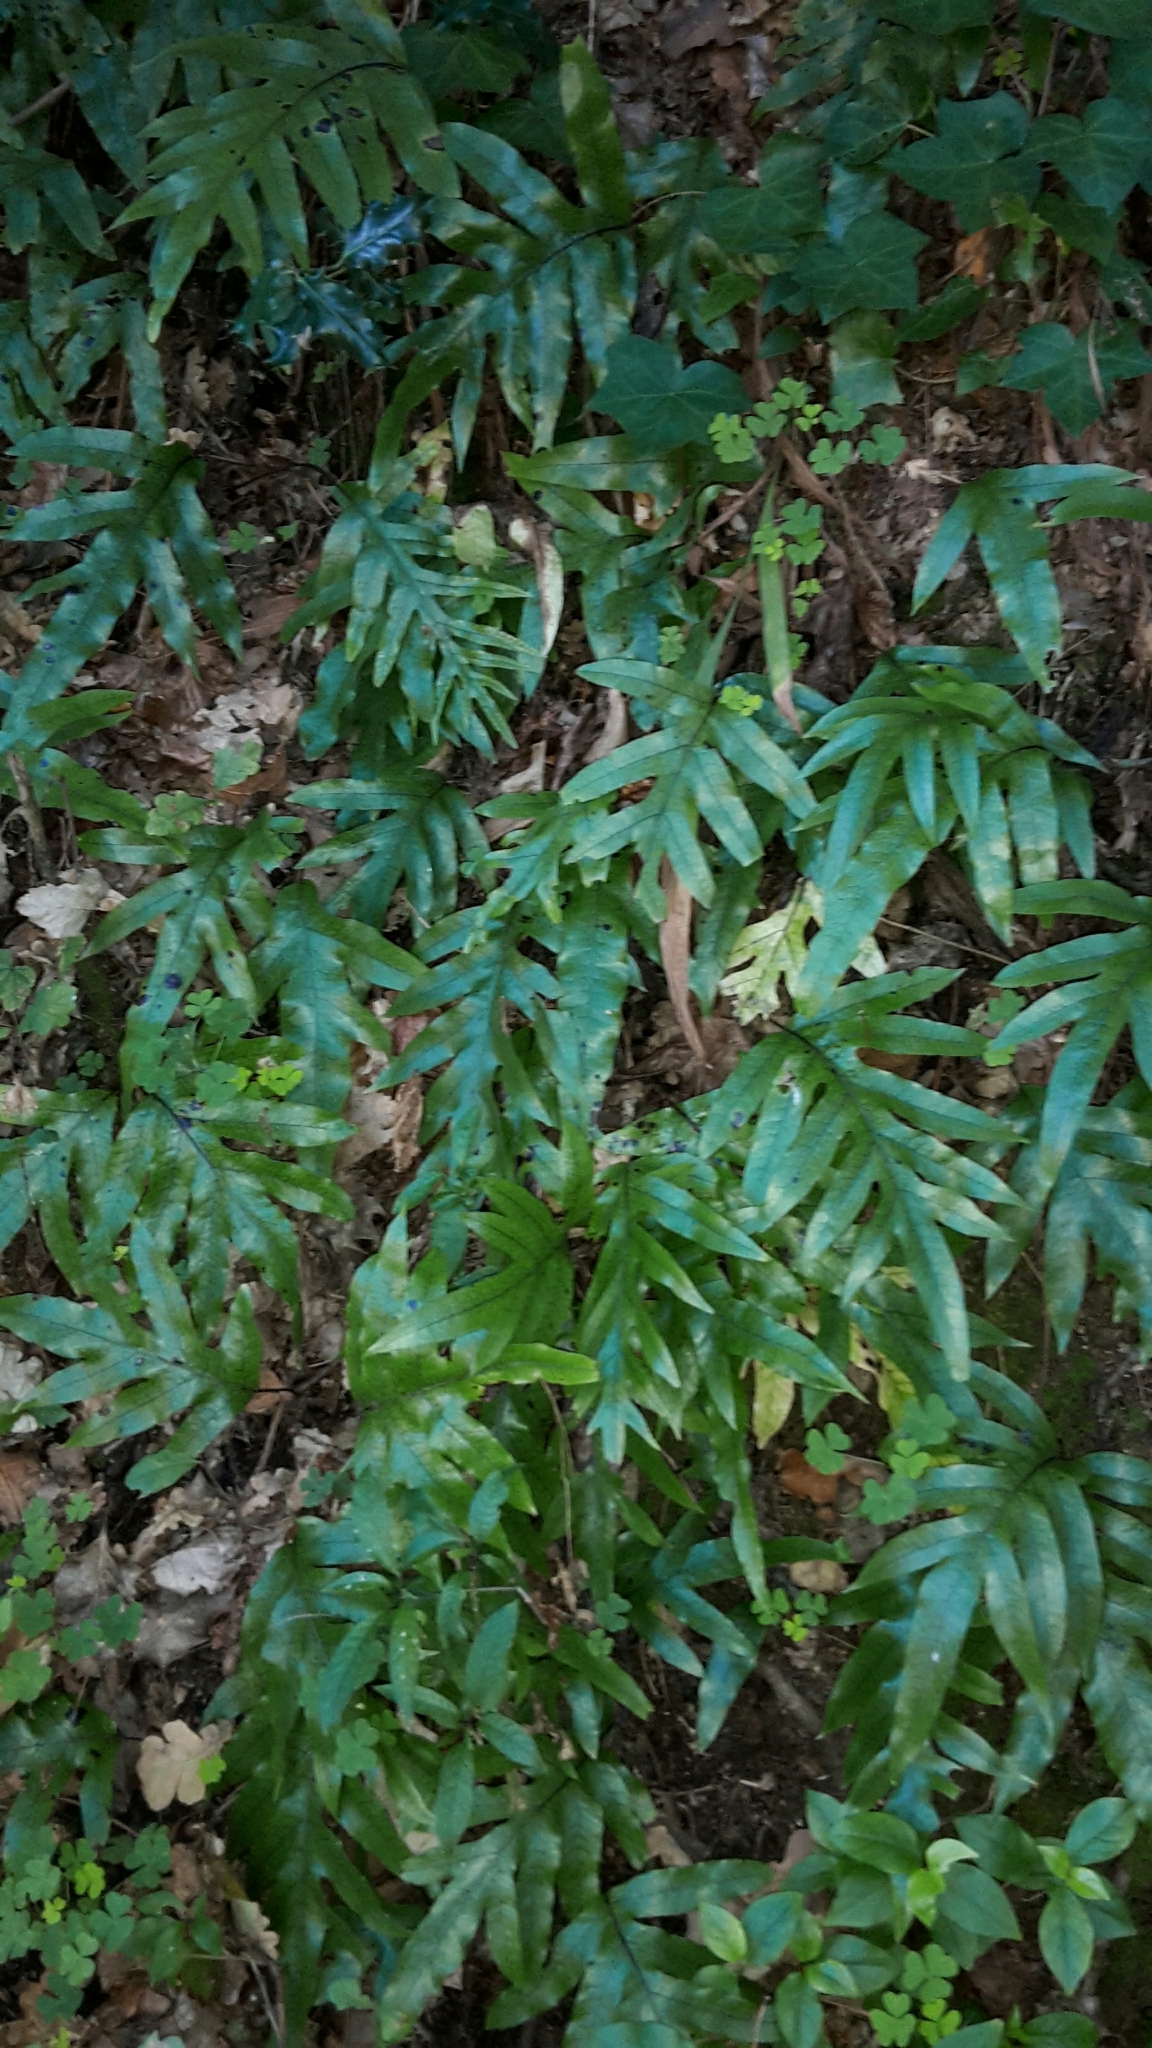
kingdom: Plantae
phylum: Tracheophyta
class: Polypodiopsida
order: Polypodiales
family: Polypodiaceae
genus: Lecanopteris
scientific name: Lecanopteris pustulata
